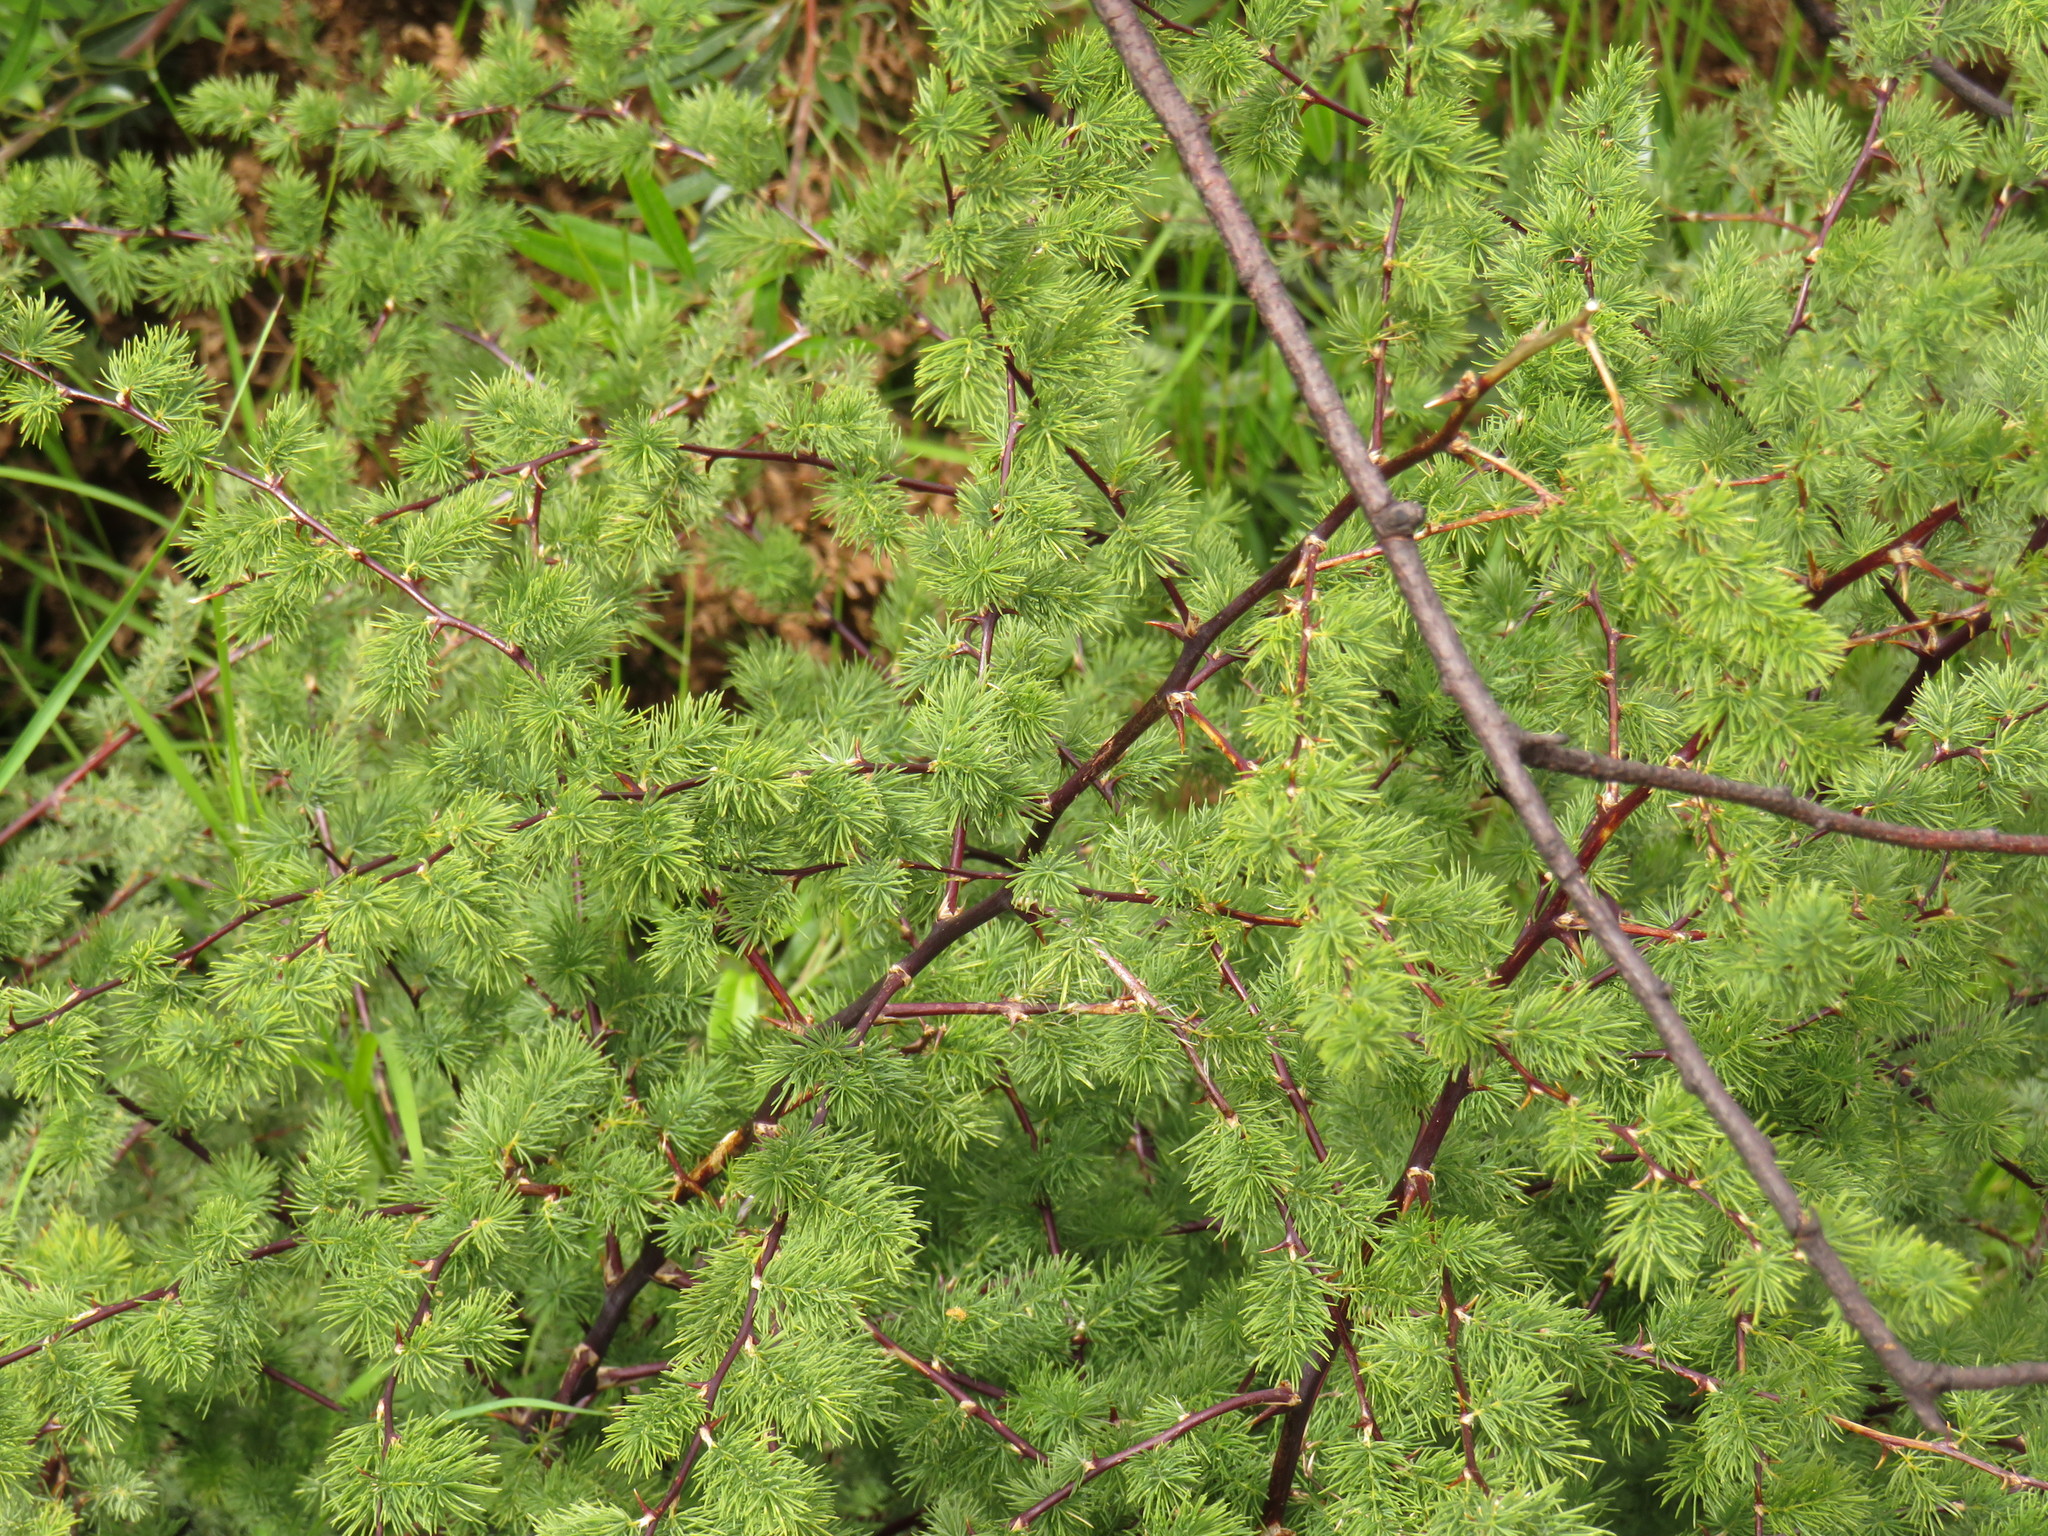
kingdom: Plantae
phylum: Tracheophyta
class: Liliopsida
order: Asparagales
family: Asparagaceae
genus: Asparagus
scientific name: Asparagus rubicundus
